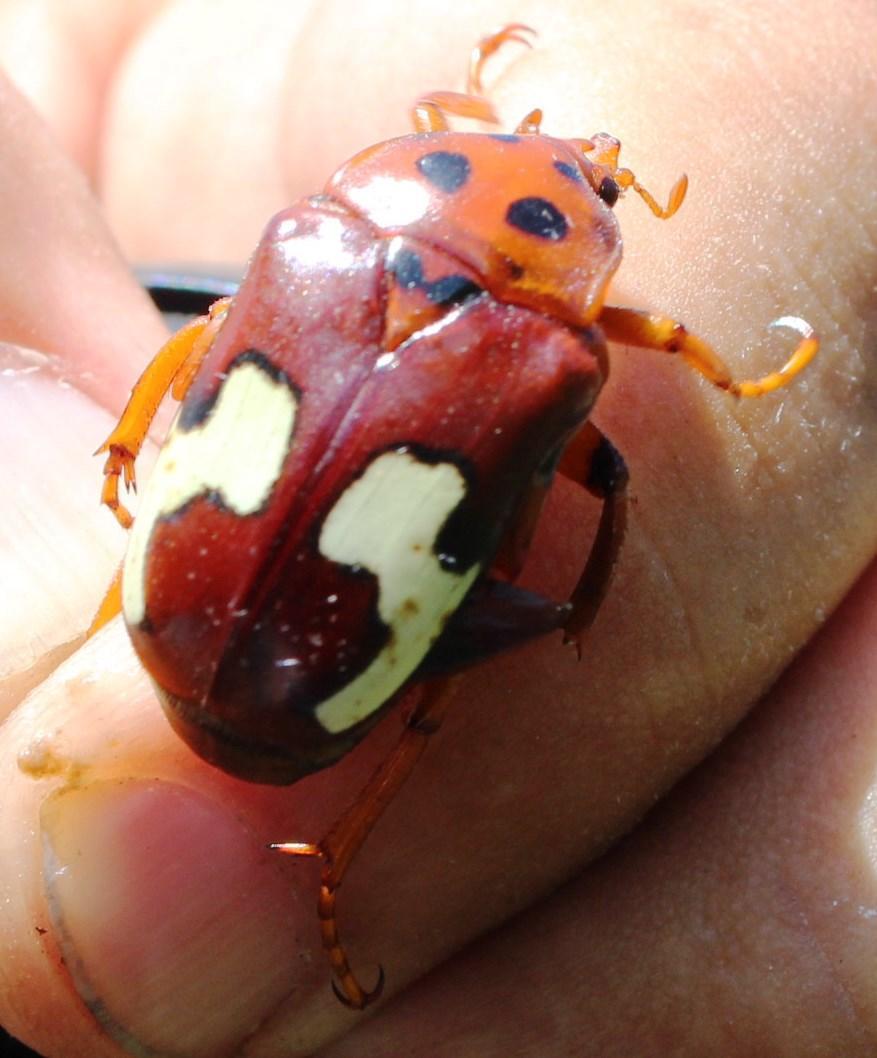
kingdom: Animalia
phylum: Arthropoda
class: Insecta
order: Coleoptera
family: Scarabaeidae
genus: Anisorrhina
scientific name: Anisorrhina flavomaculata
